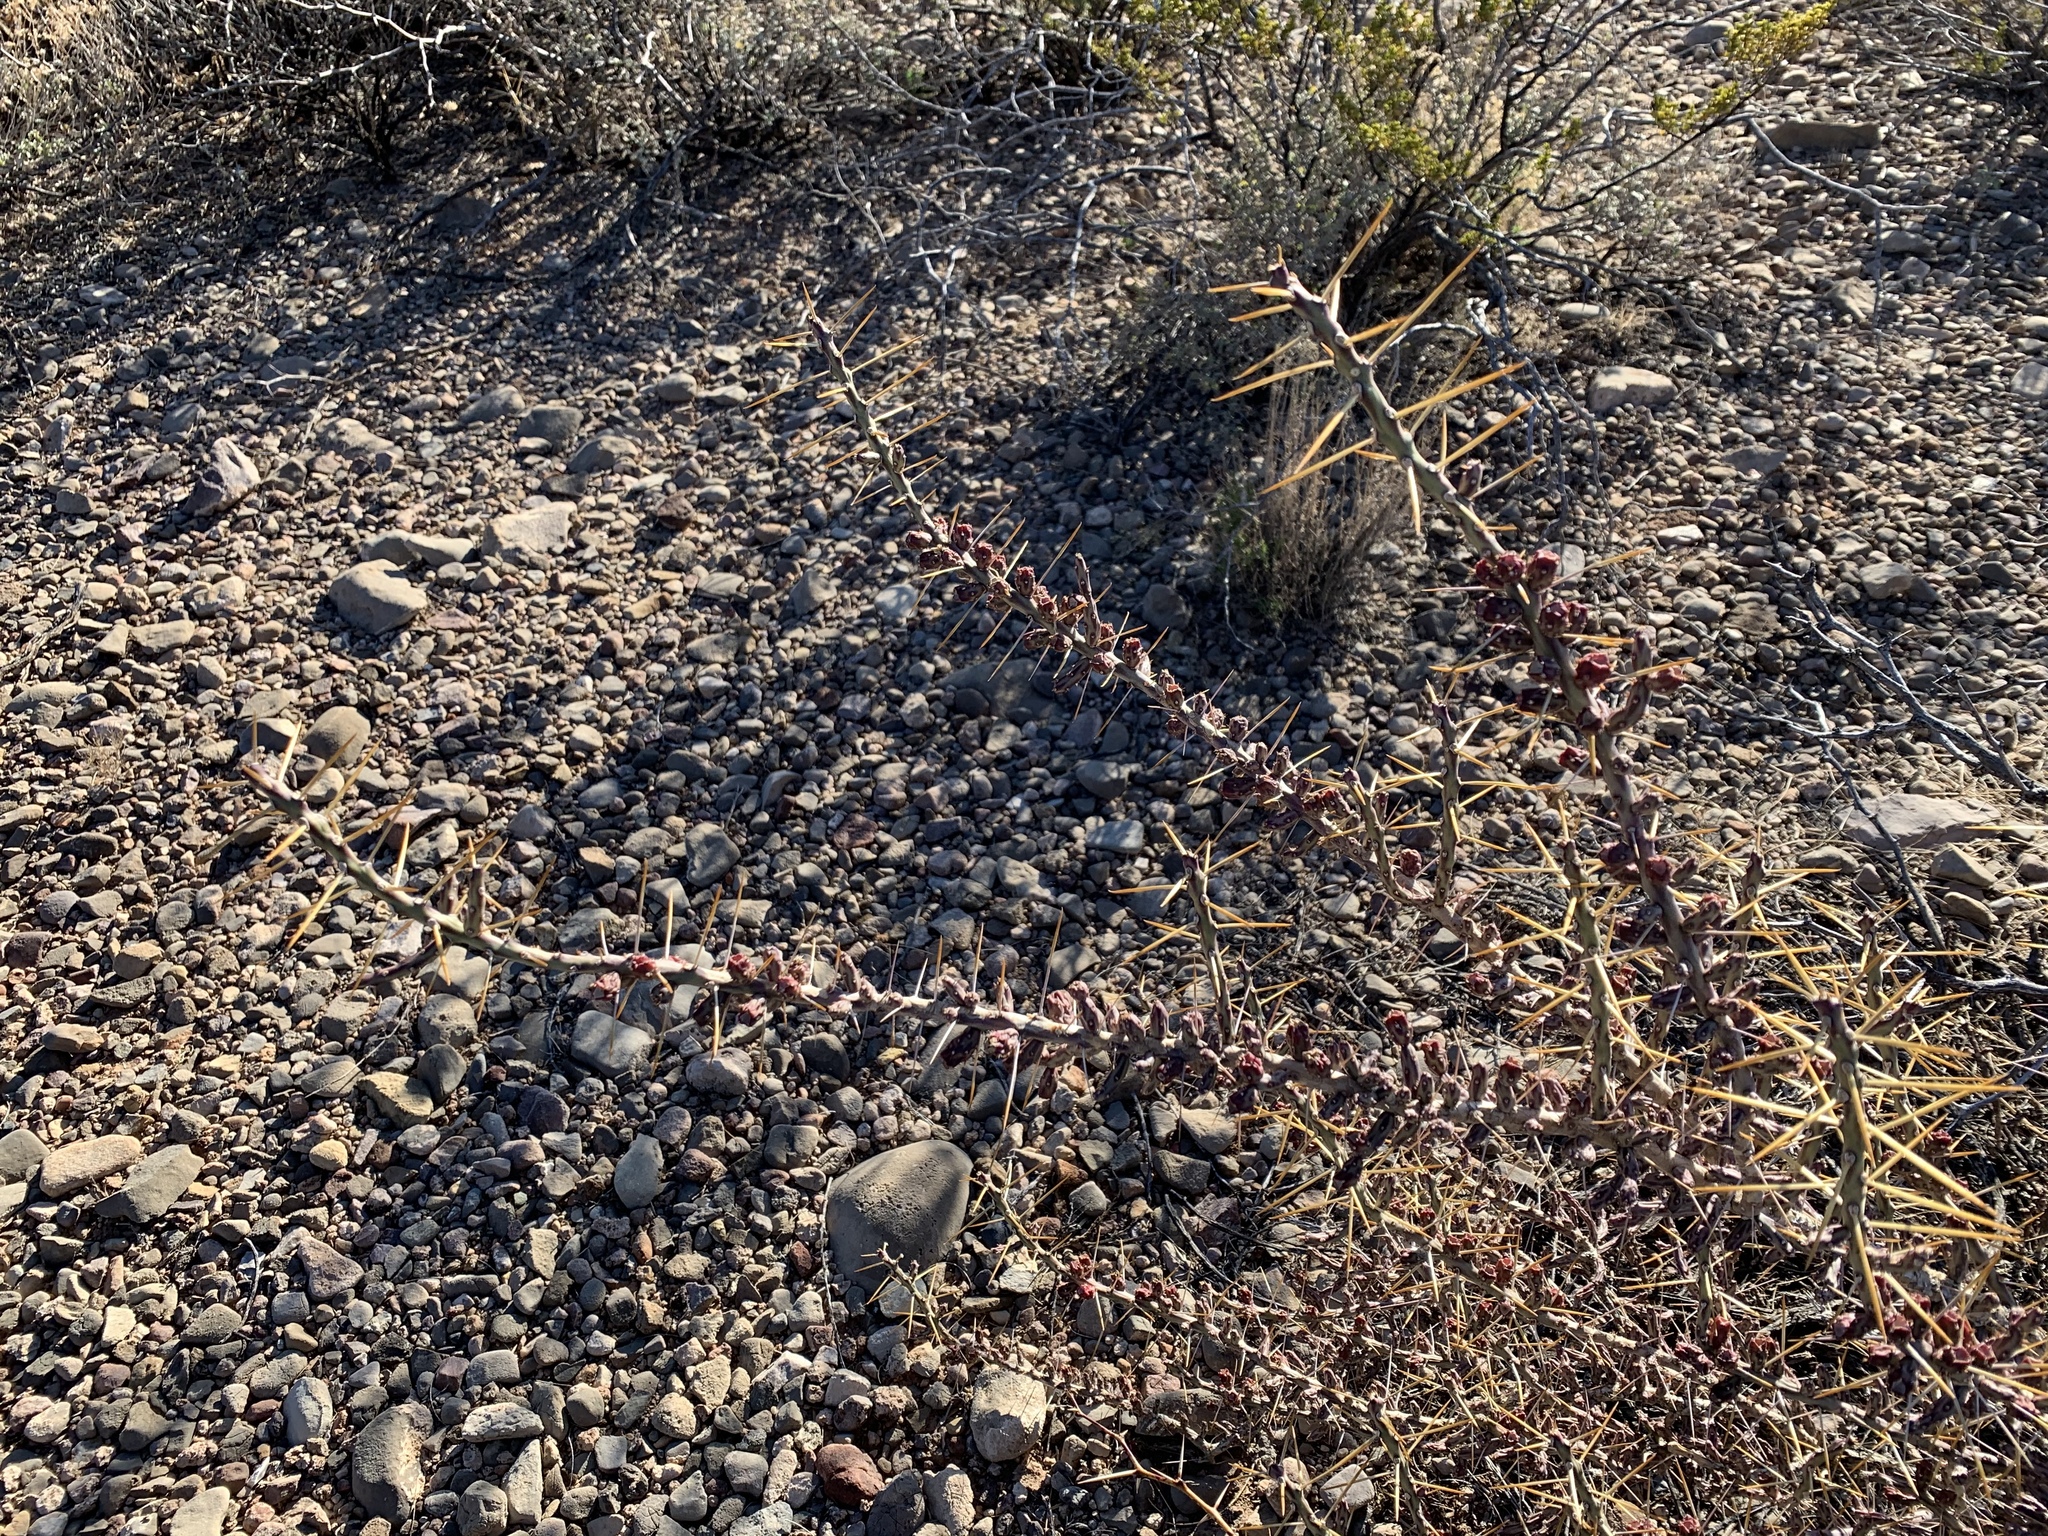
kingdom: Plantae
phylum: Tracheophyta
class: Magnoliopsida
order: Caryophyllales
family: Cactaceae
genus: Cylindropuntia
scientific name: Cylindropuntia leptocaulis
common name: Christmas cactus
